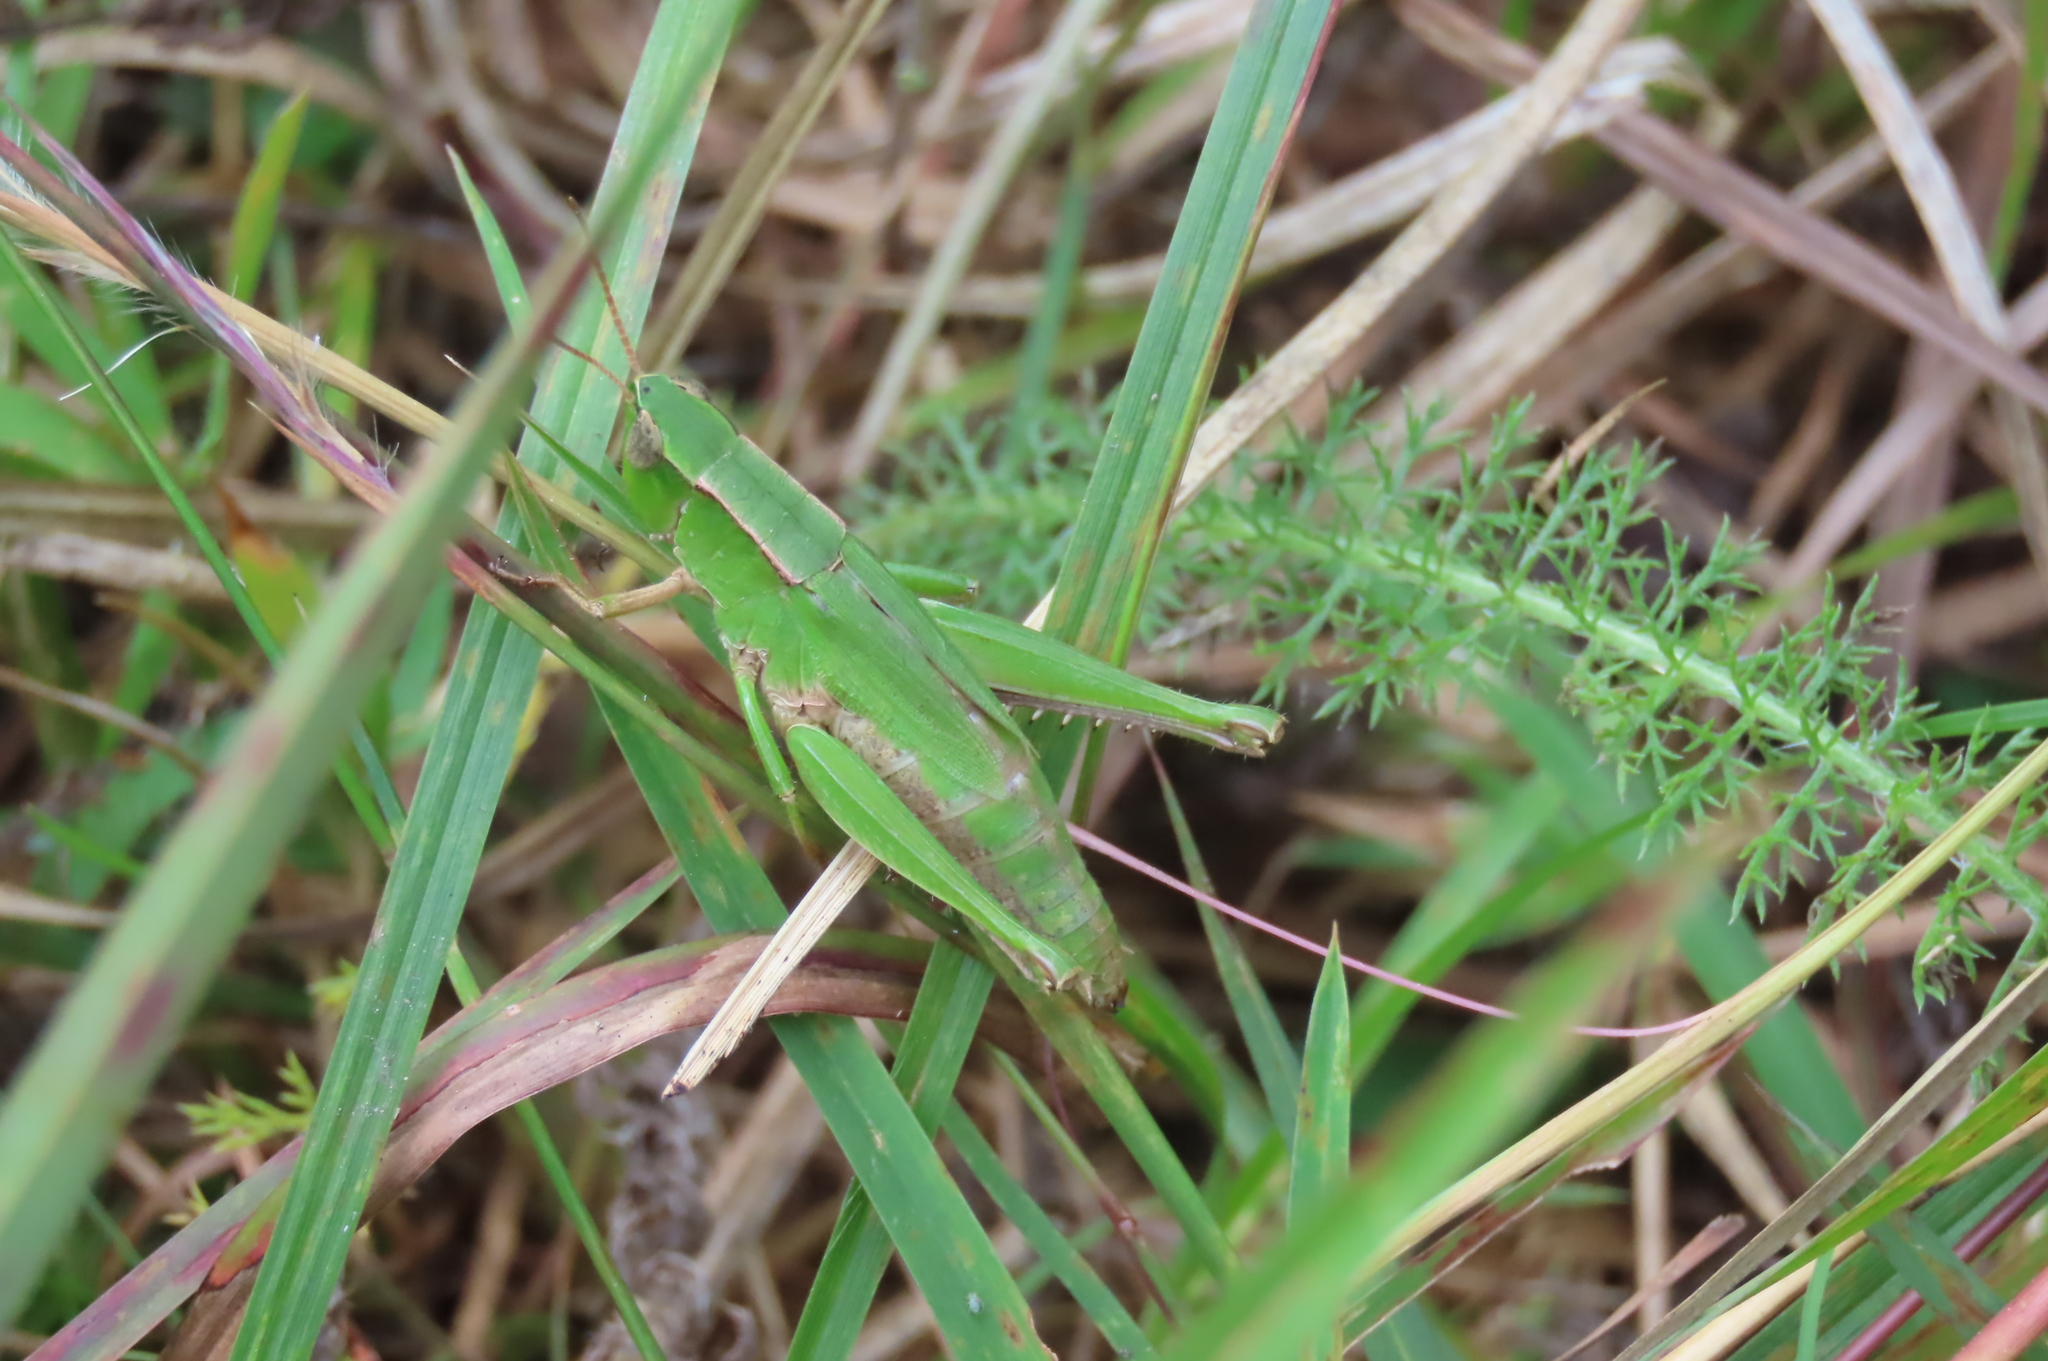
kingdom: Animalia
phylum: Arthropoda
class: Insecta
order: Orthoptera
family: Acrididae
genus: Dichromorpha
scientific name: Dichromorpha viridis
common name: Short-winged green grasshopper
